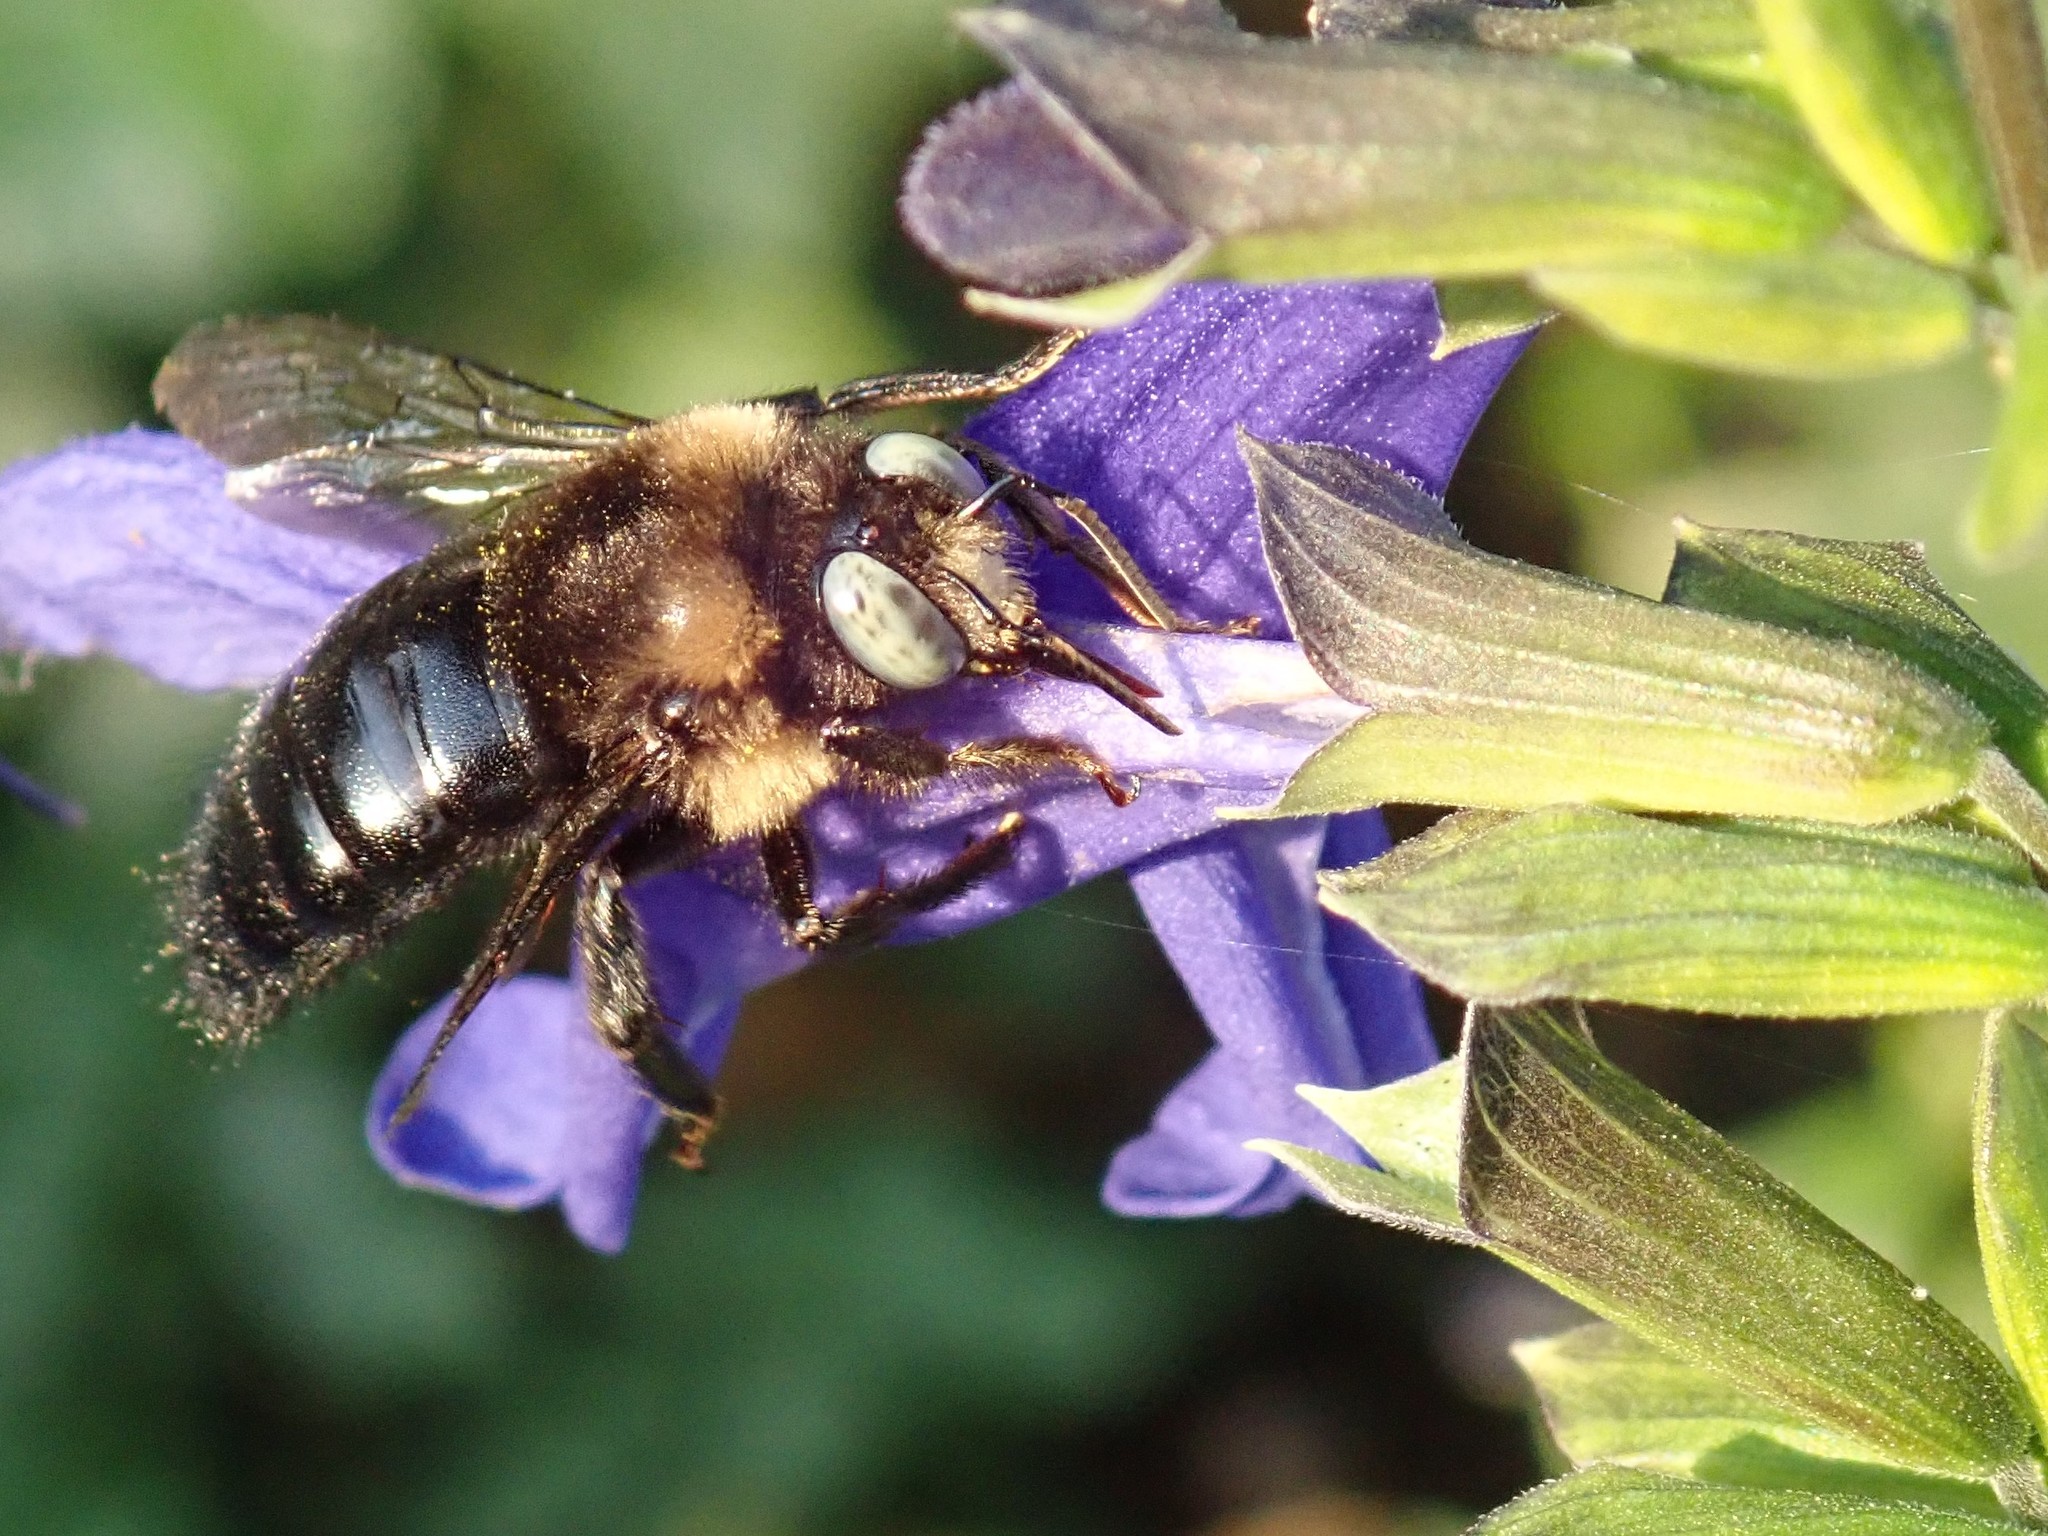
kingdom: Animalia
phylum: Arthropoda
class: Insecta
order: Hymenoptera
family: Apidae
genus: Xylocopa
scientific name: Xylocopa tabaniformis
